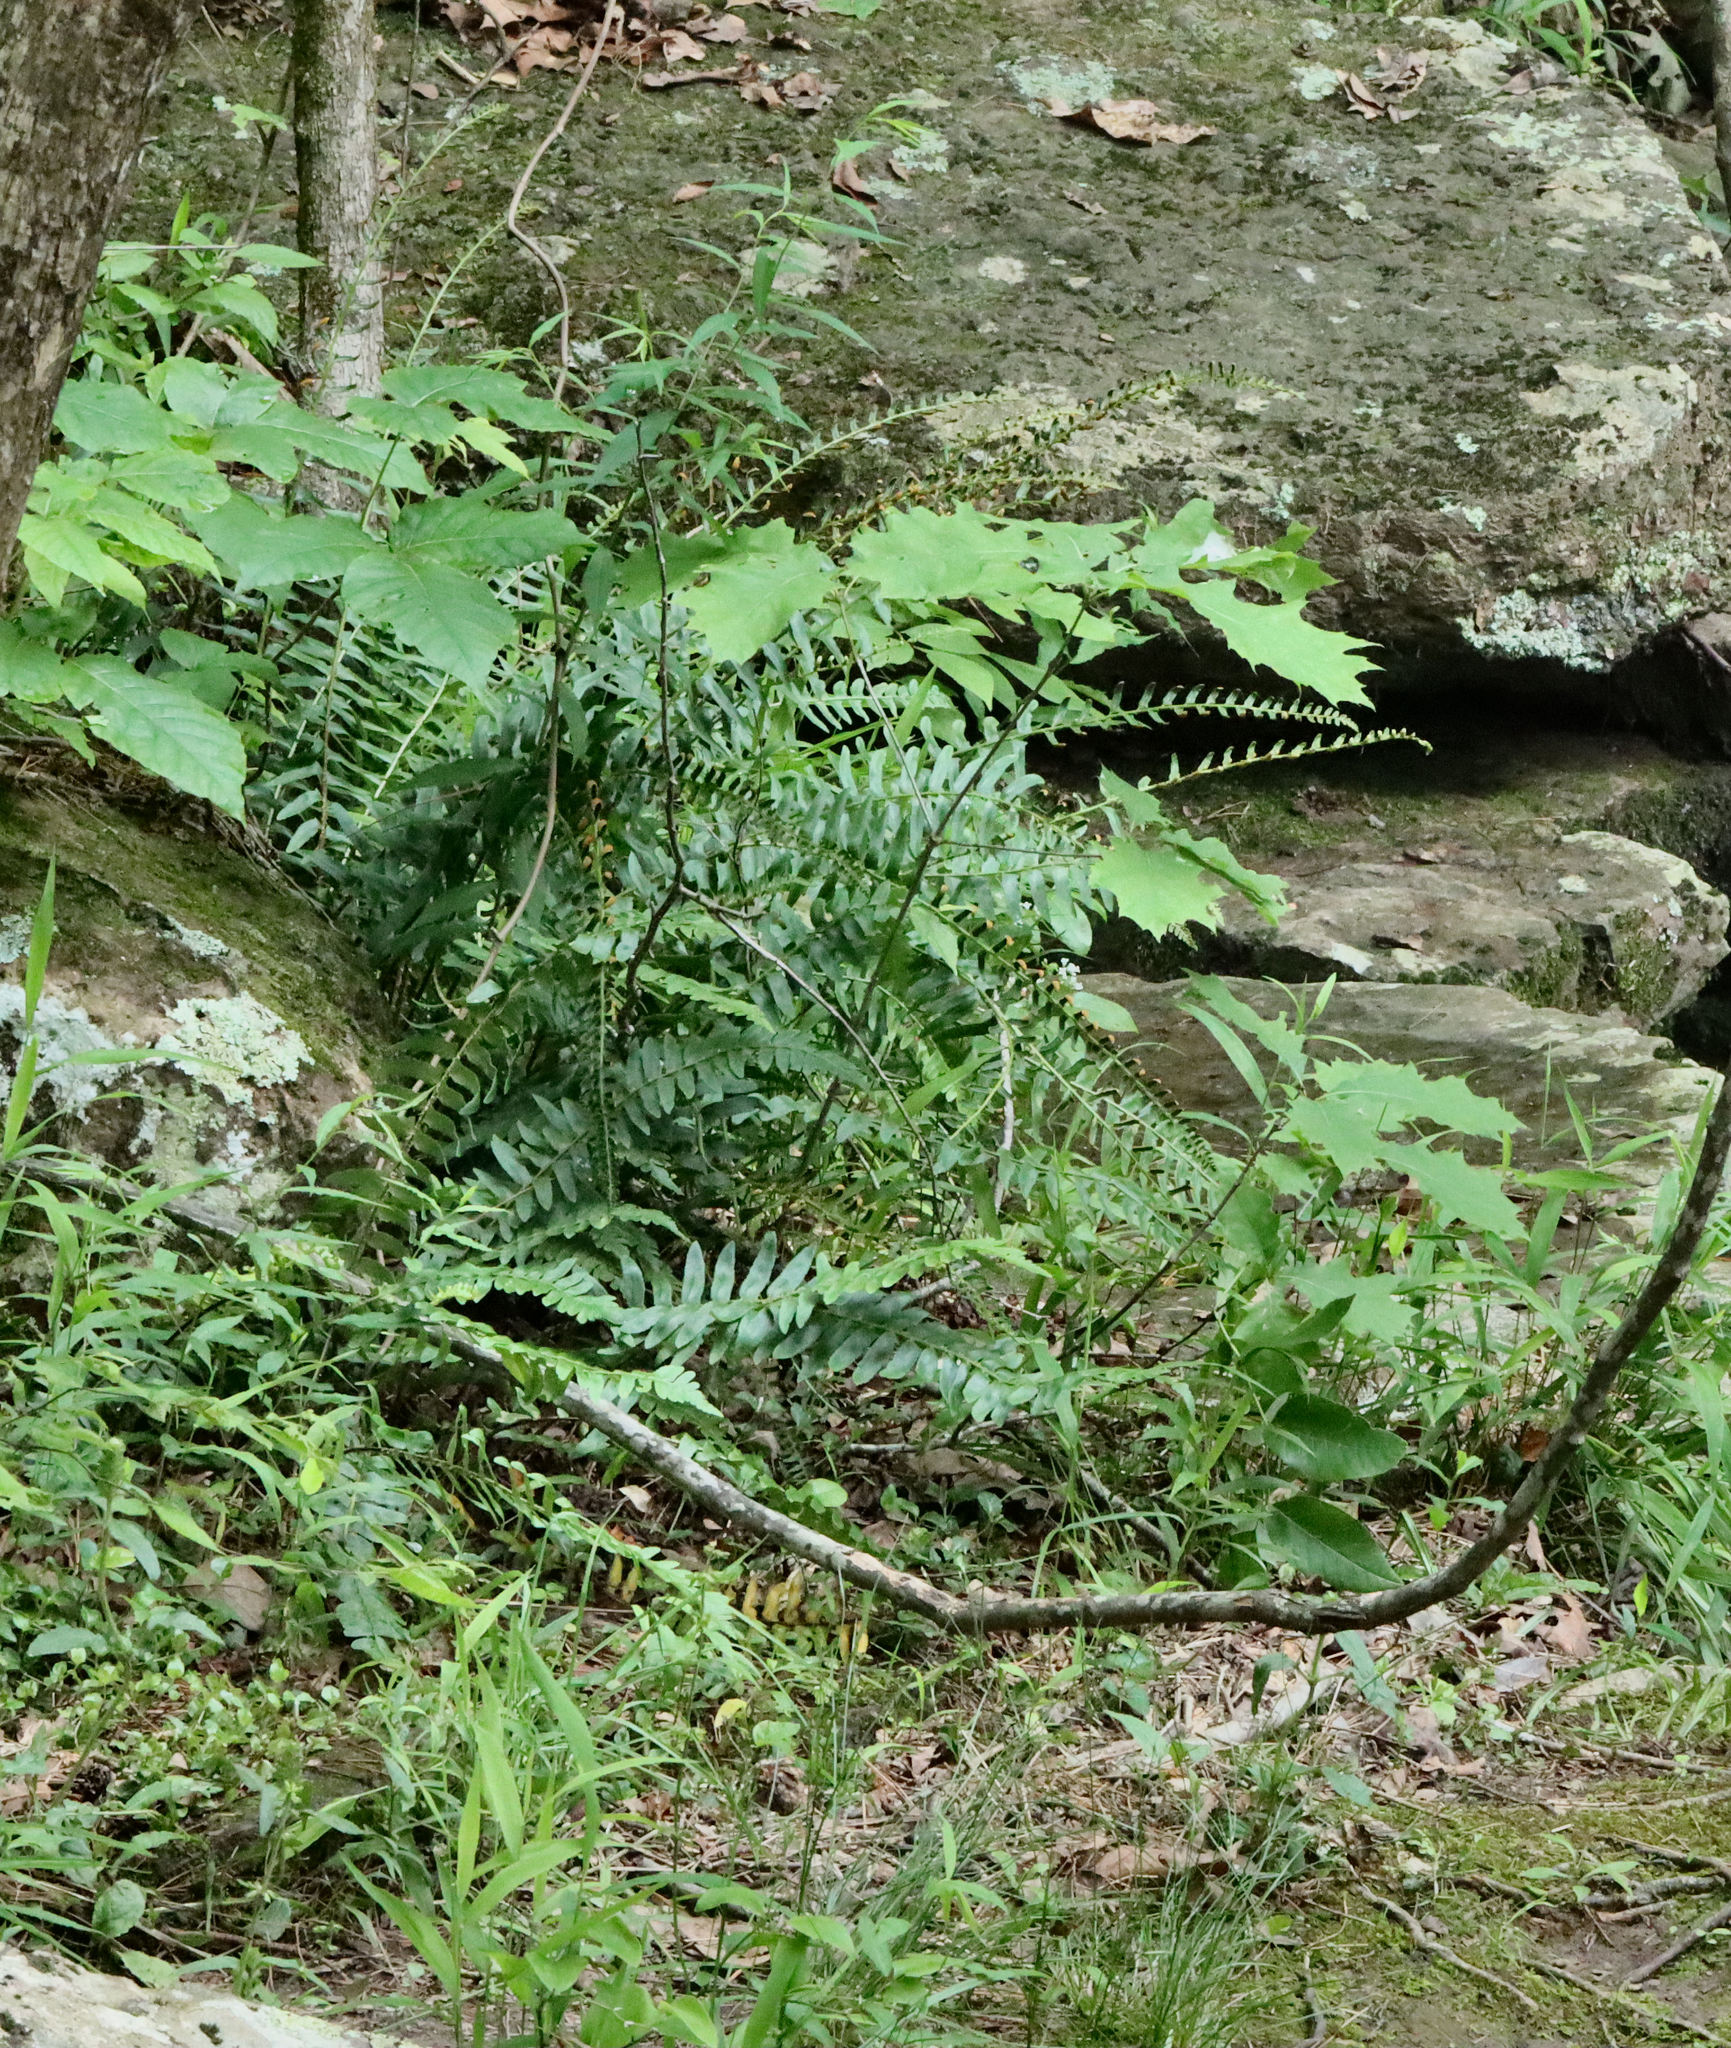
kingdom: Plantae
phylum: Tracheophyta
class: Polypodiopsida
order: Polypodiales
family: Dryopteridaceae
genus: Polystichum
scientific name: Polystichum acrostichoides
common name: Christmas fern
